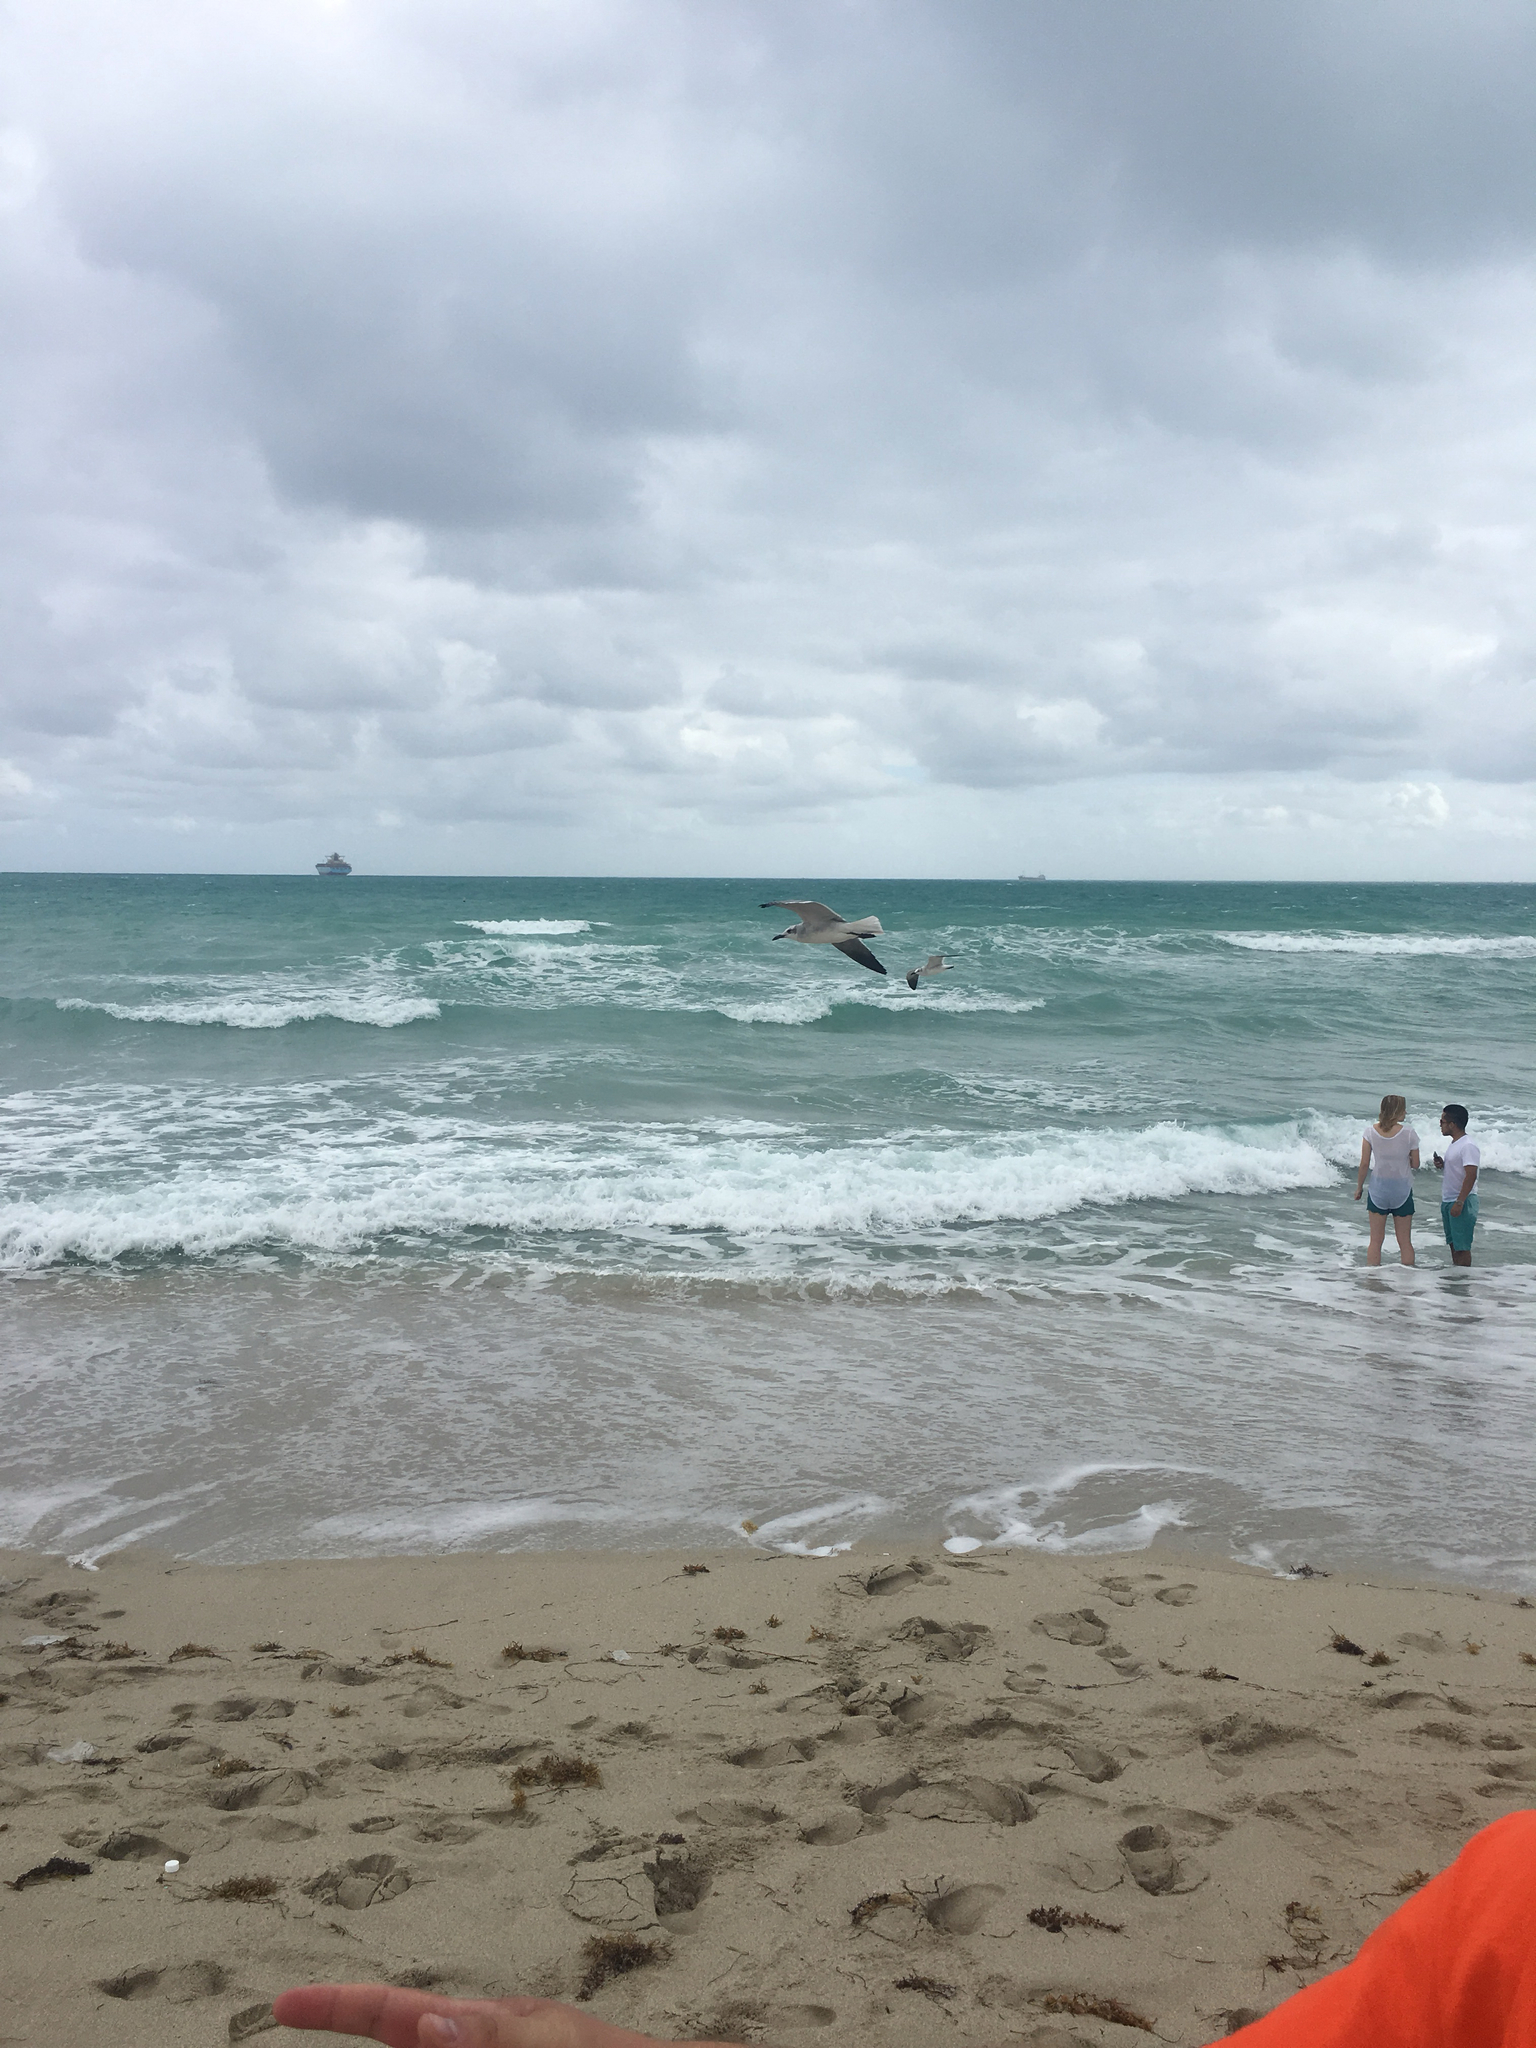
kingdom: Animalia
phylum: Chordata
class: Aves
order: Charadriiformes
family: Laridae
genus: Leucophaeus
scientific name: Leucophaeus atricilla
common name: Laughing gull
